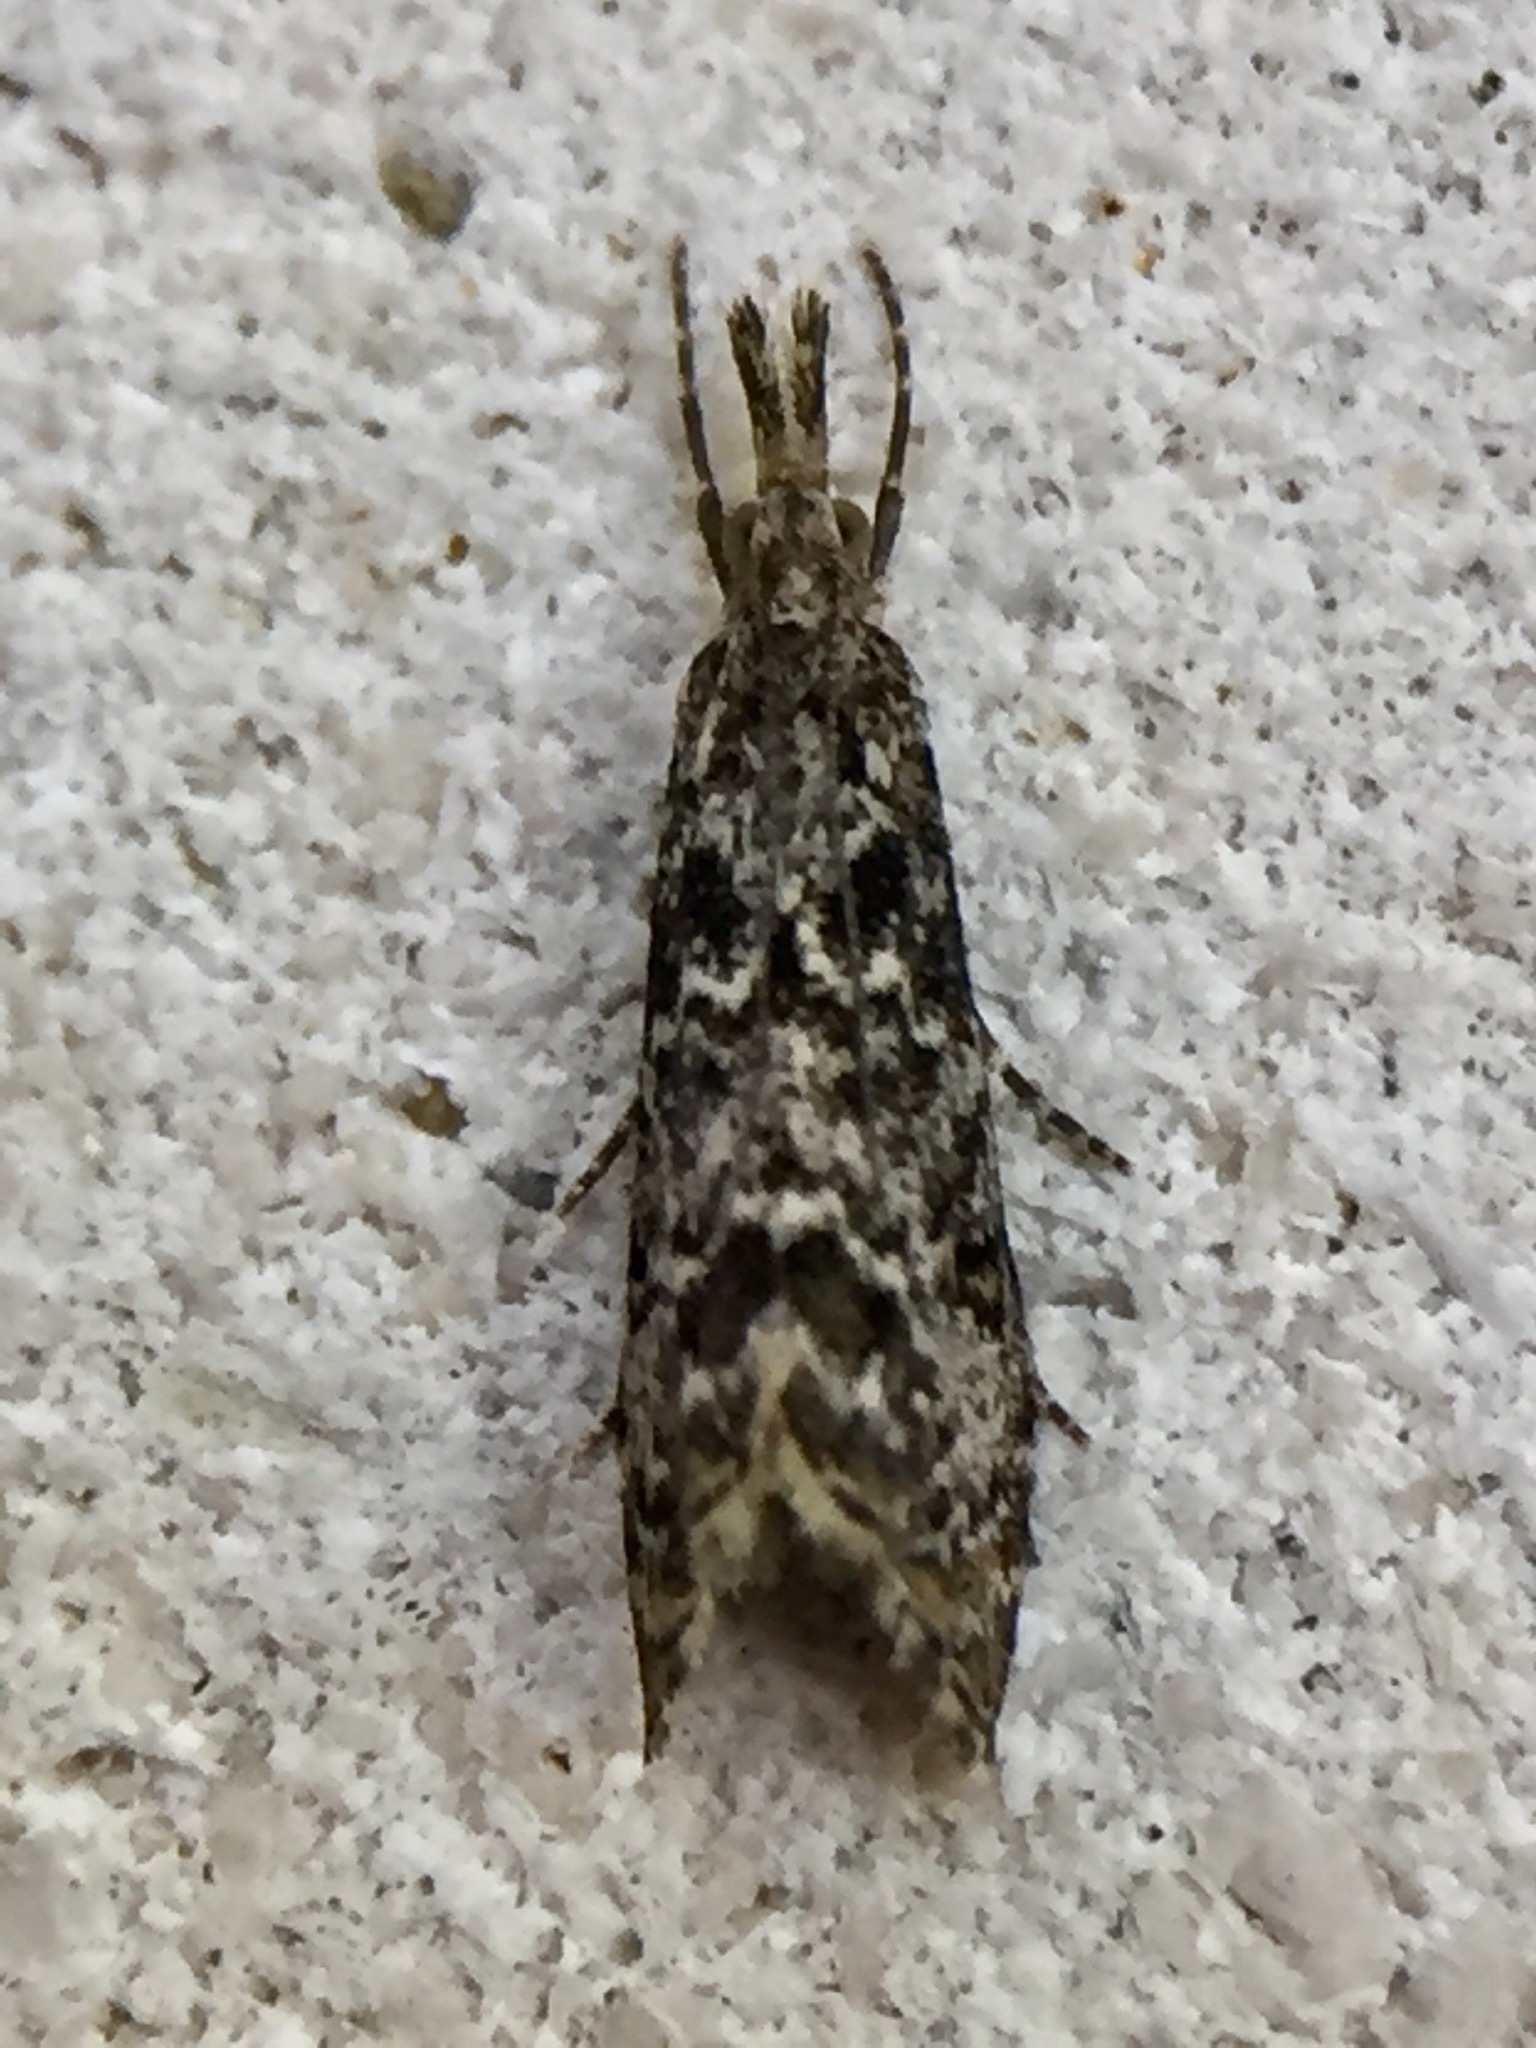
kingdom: Animalia
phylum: Arthropoda
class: Insecta
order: Lepidoptera
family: Crambidae
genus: Glaucocharis
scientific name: Glaucocharis elaina
